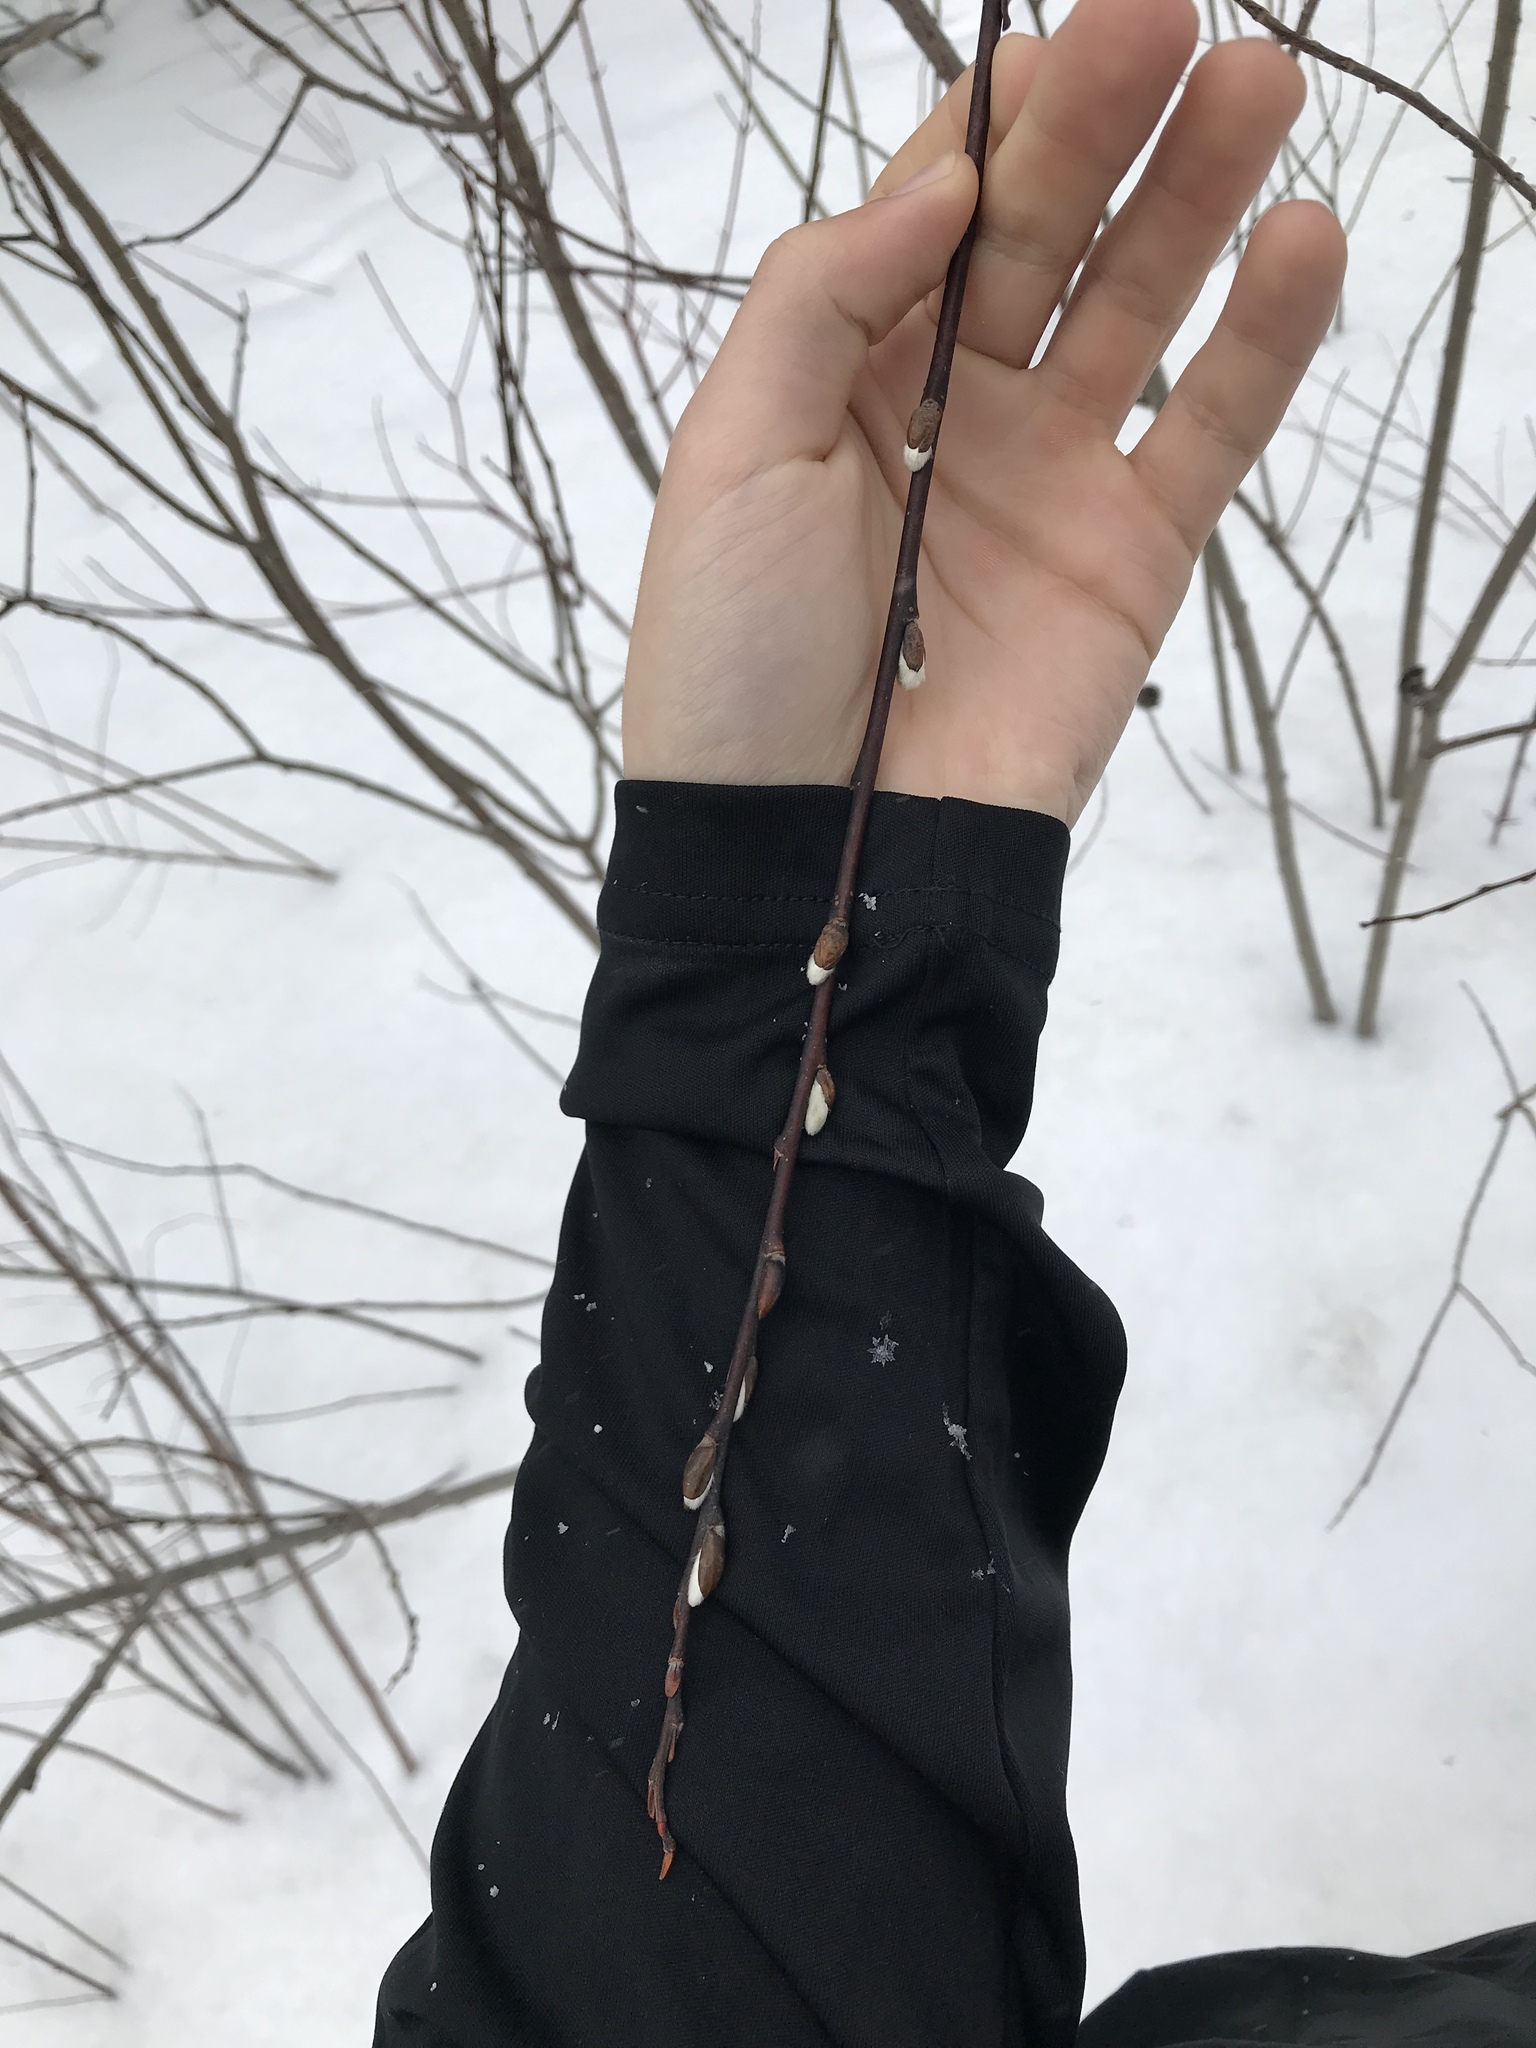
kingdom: Plantae
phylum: Tracheophyta
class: Magnoliopsida
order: Malpighiales
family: Salicaceae
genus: Salix
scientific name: Salix discolor
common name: Glaucous willow
